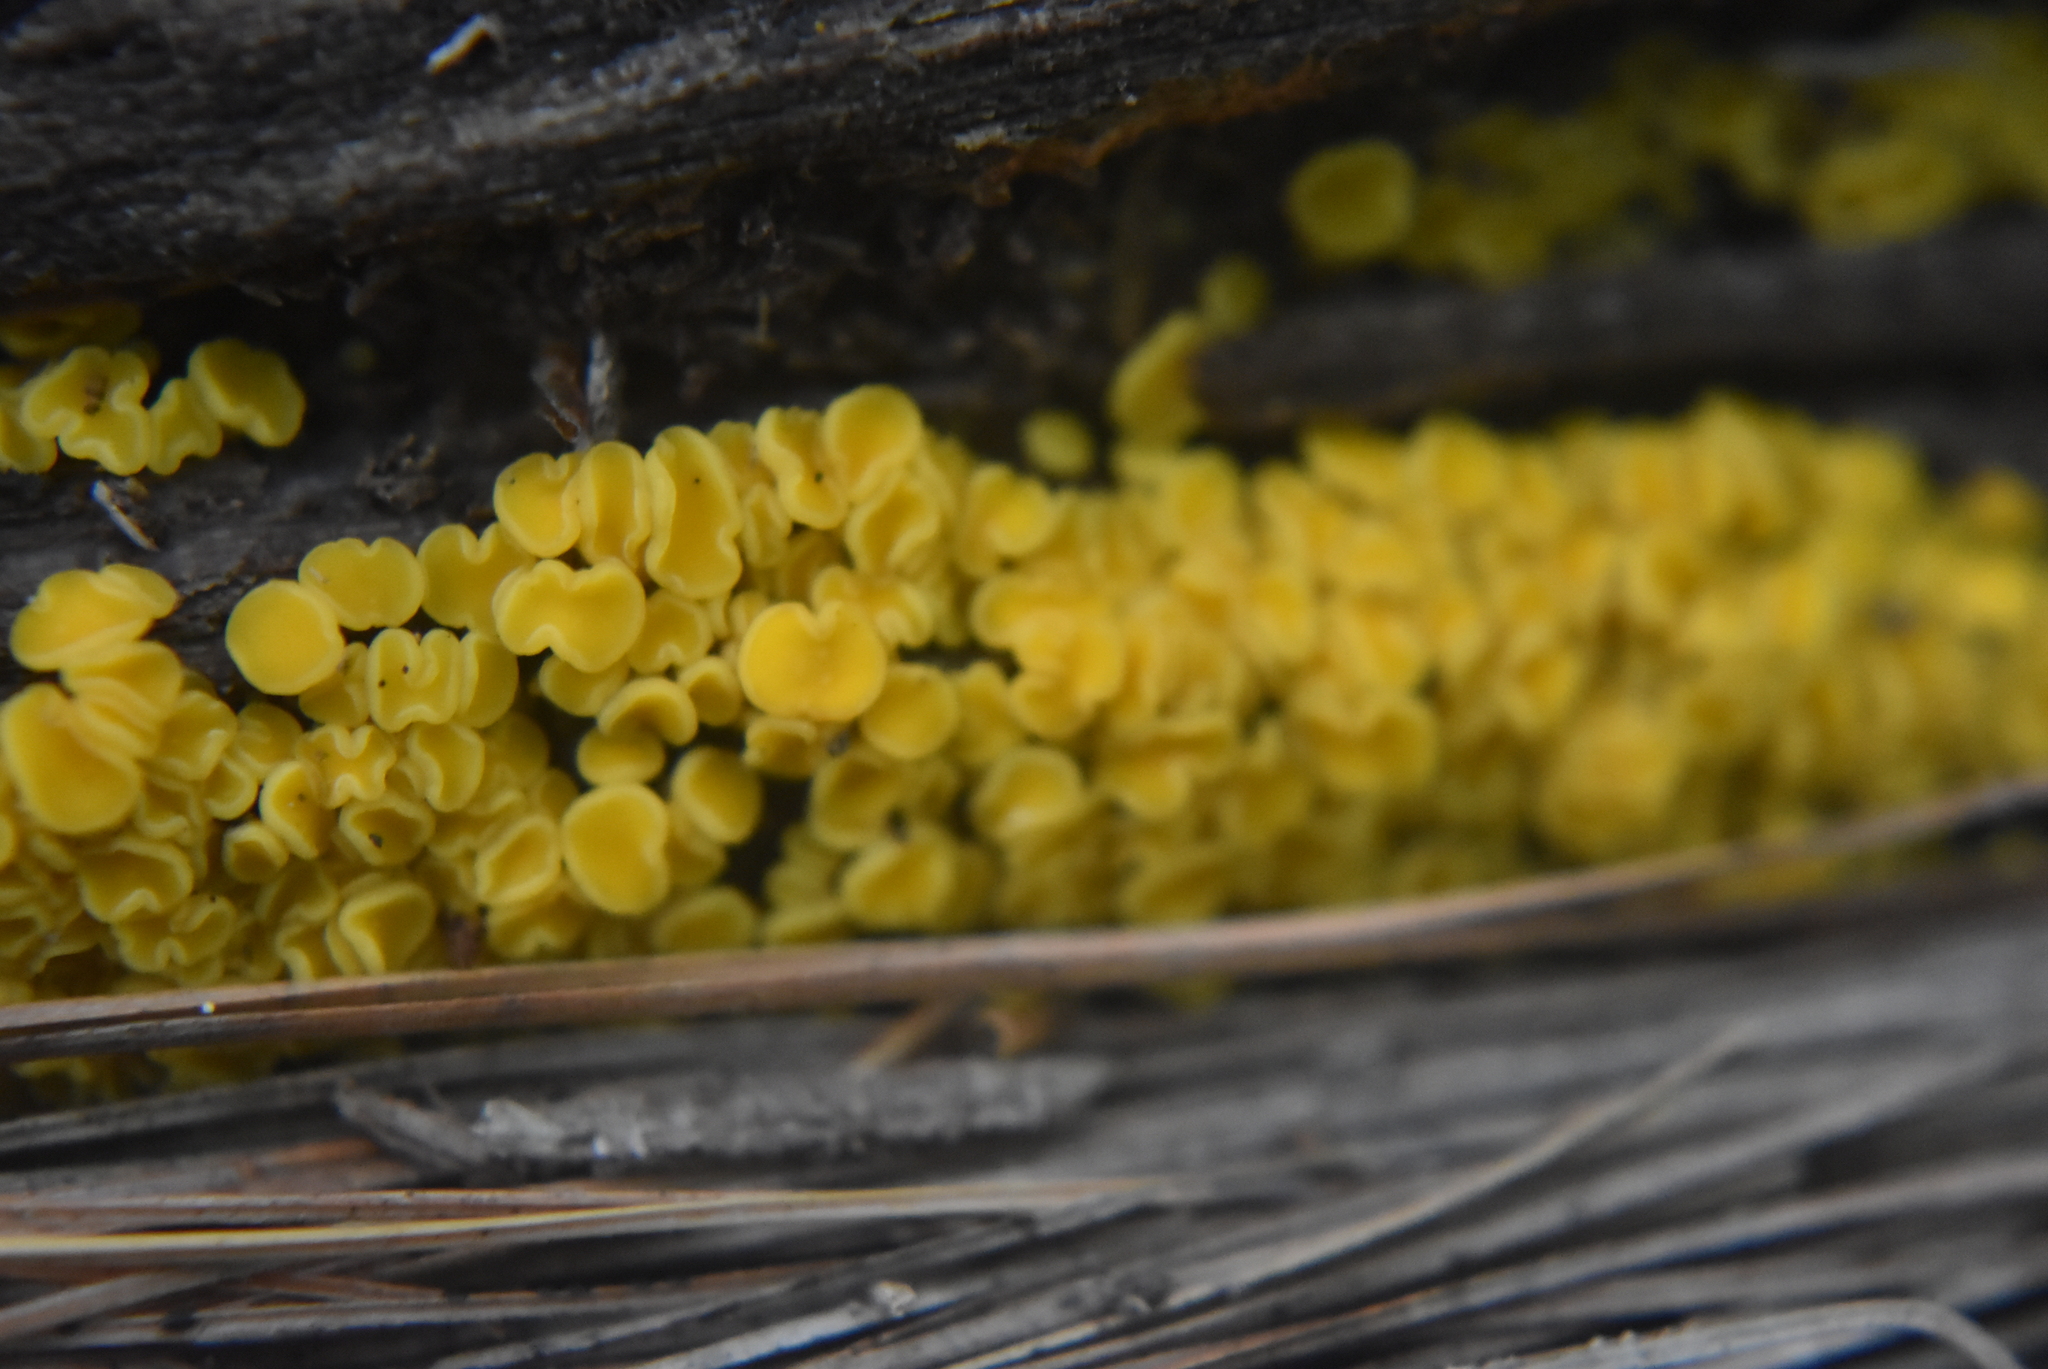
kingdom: Fungi
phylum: Ascomycota
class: Leotiomycetes
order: Helotiales
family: Pezizellaceae
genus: Calycina
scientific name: Calycina citrina
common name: Yellow fairy cups
